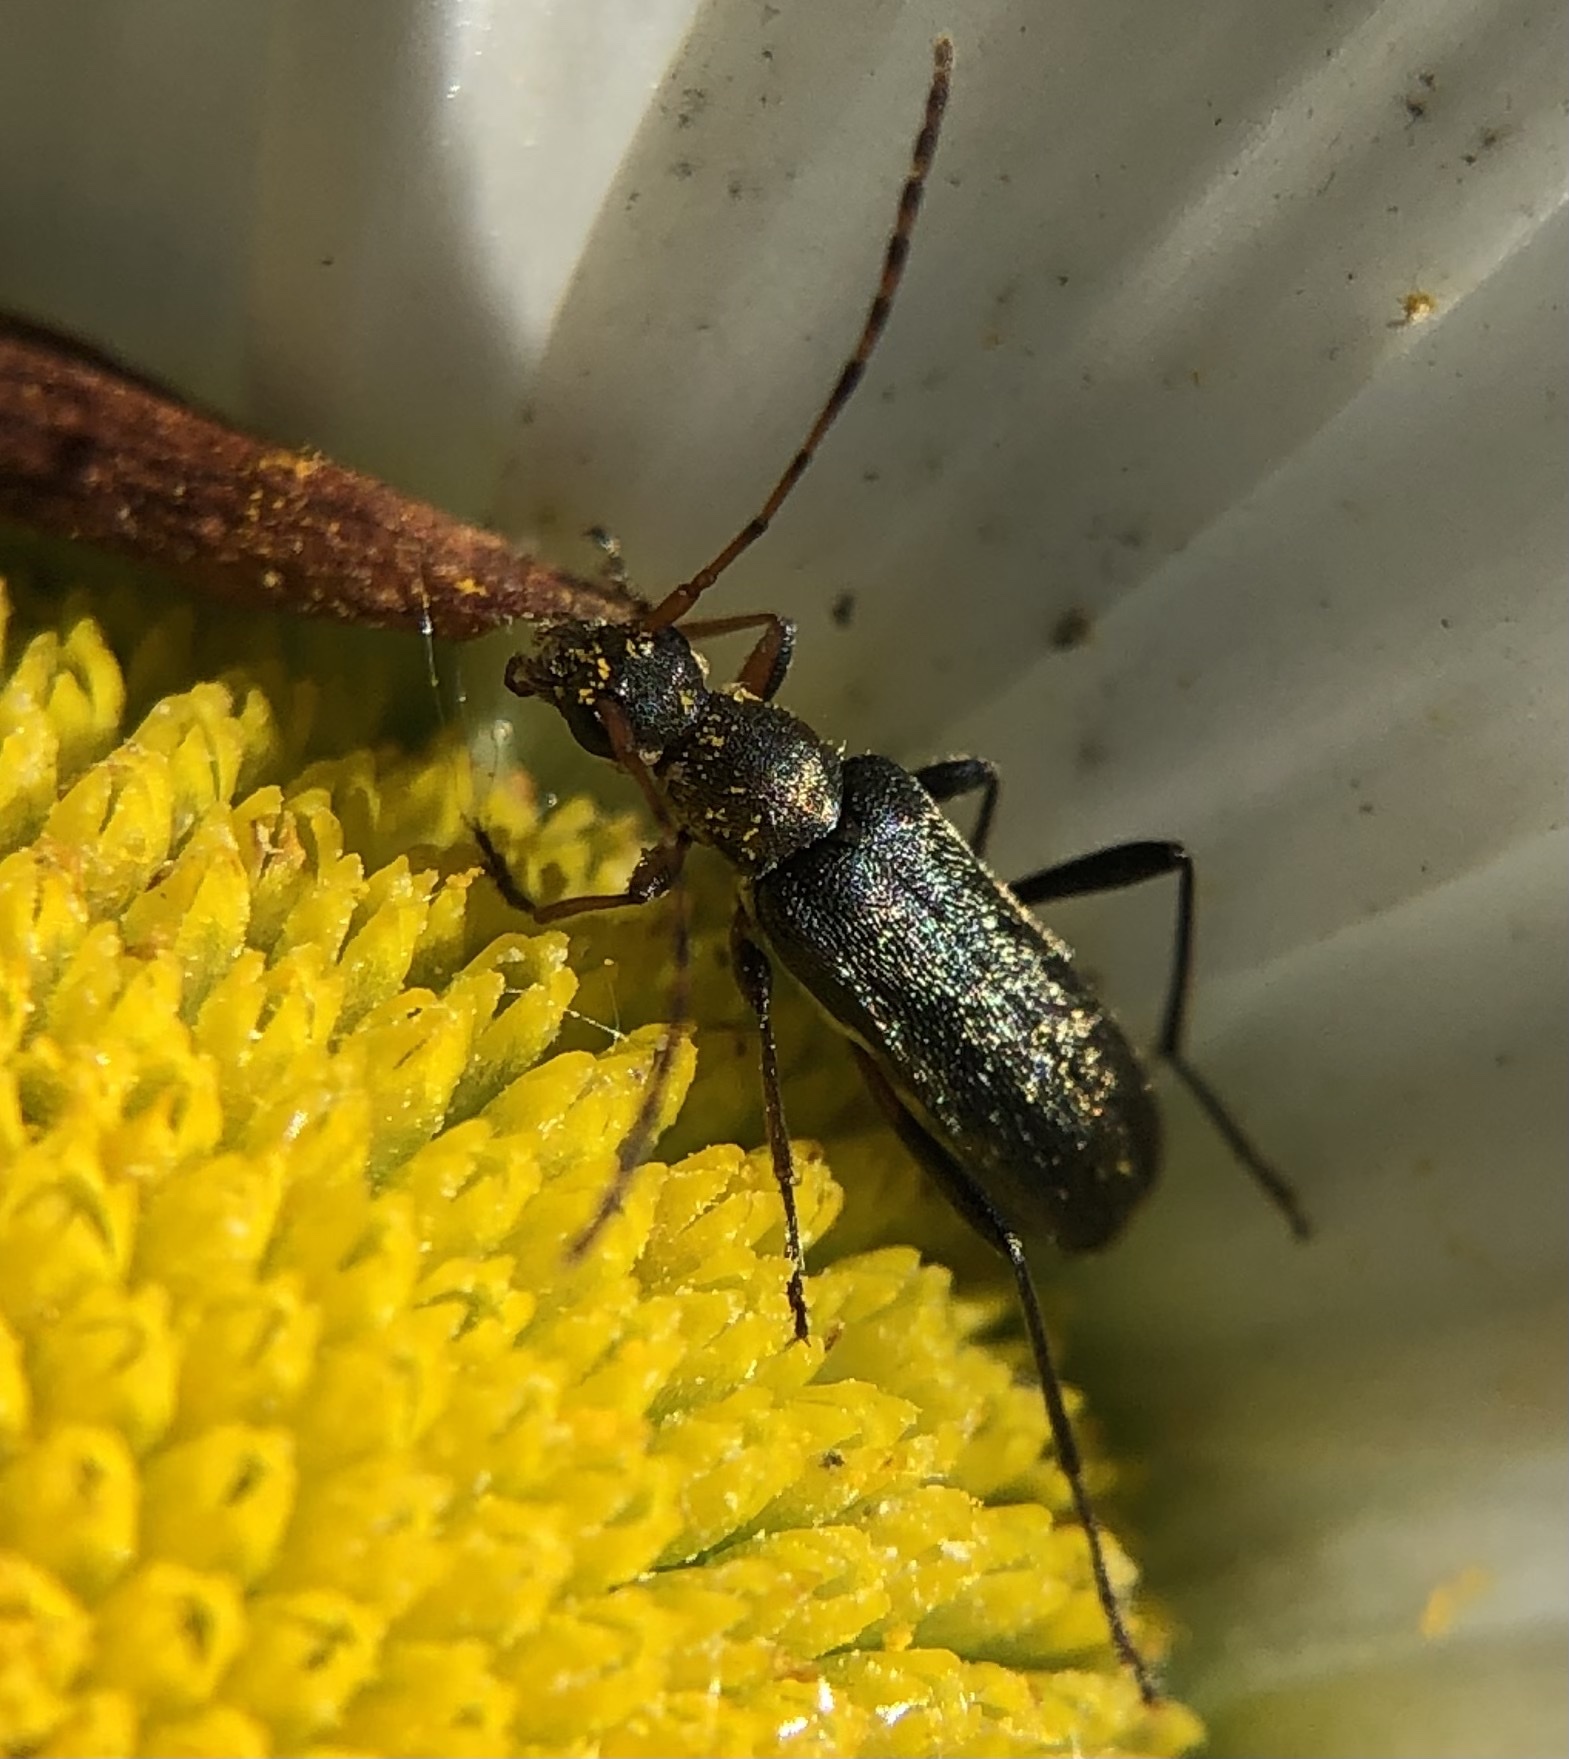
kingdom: Animalia
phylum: Arthropoda
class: Insecta
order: Coleoptera
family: Cerambycidae
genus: Grammoptera
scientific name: Grammoptera ruficornis
